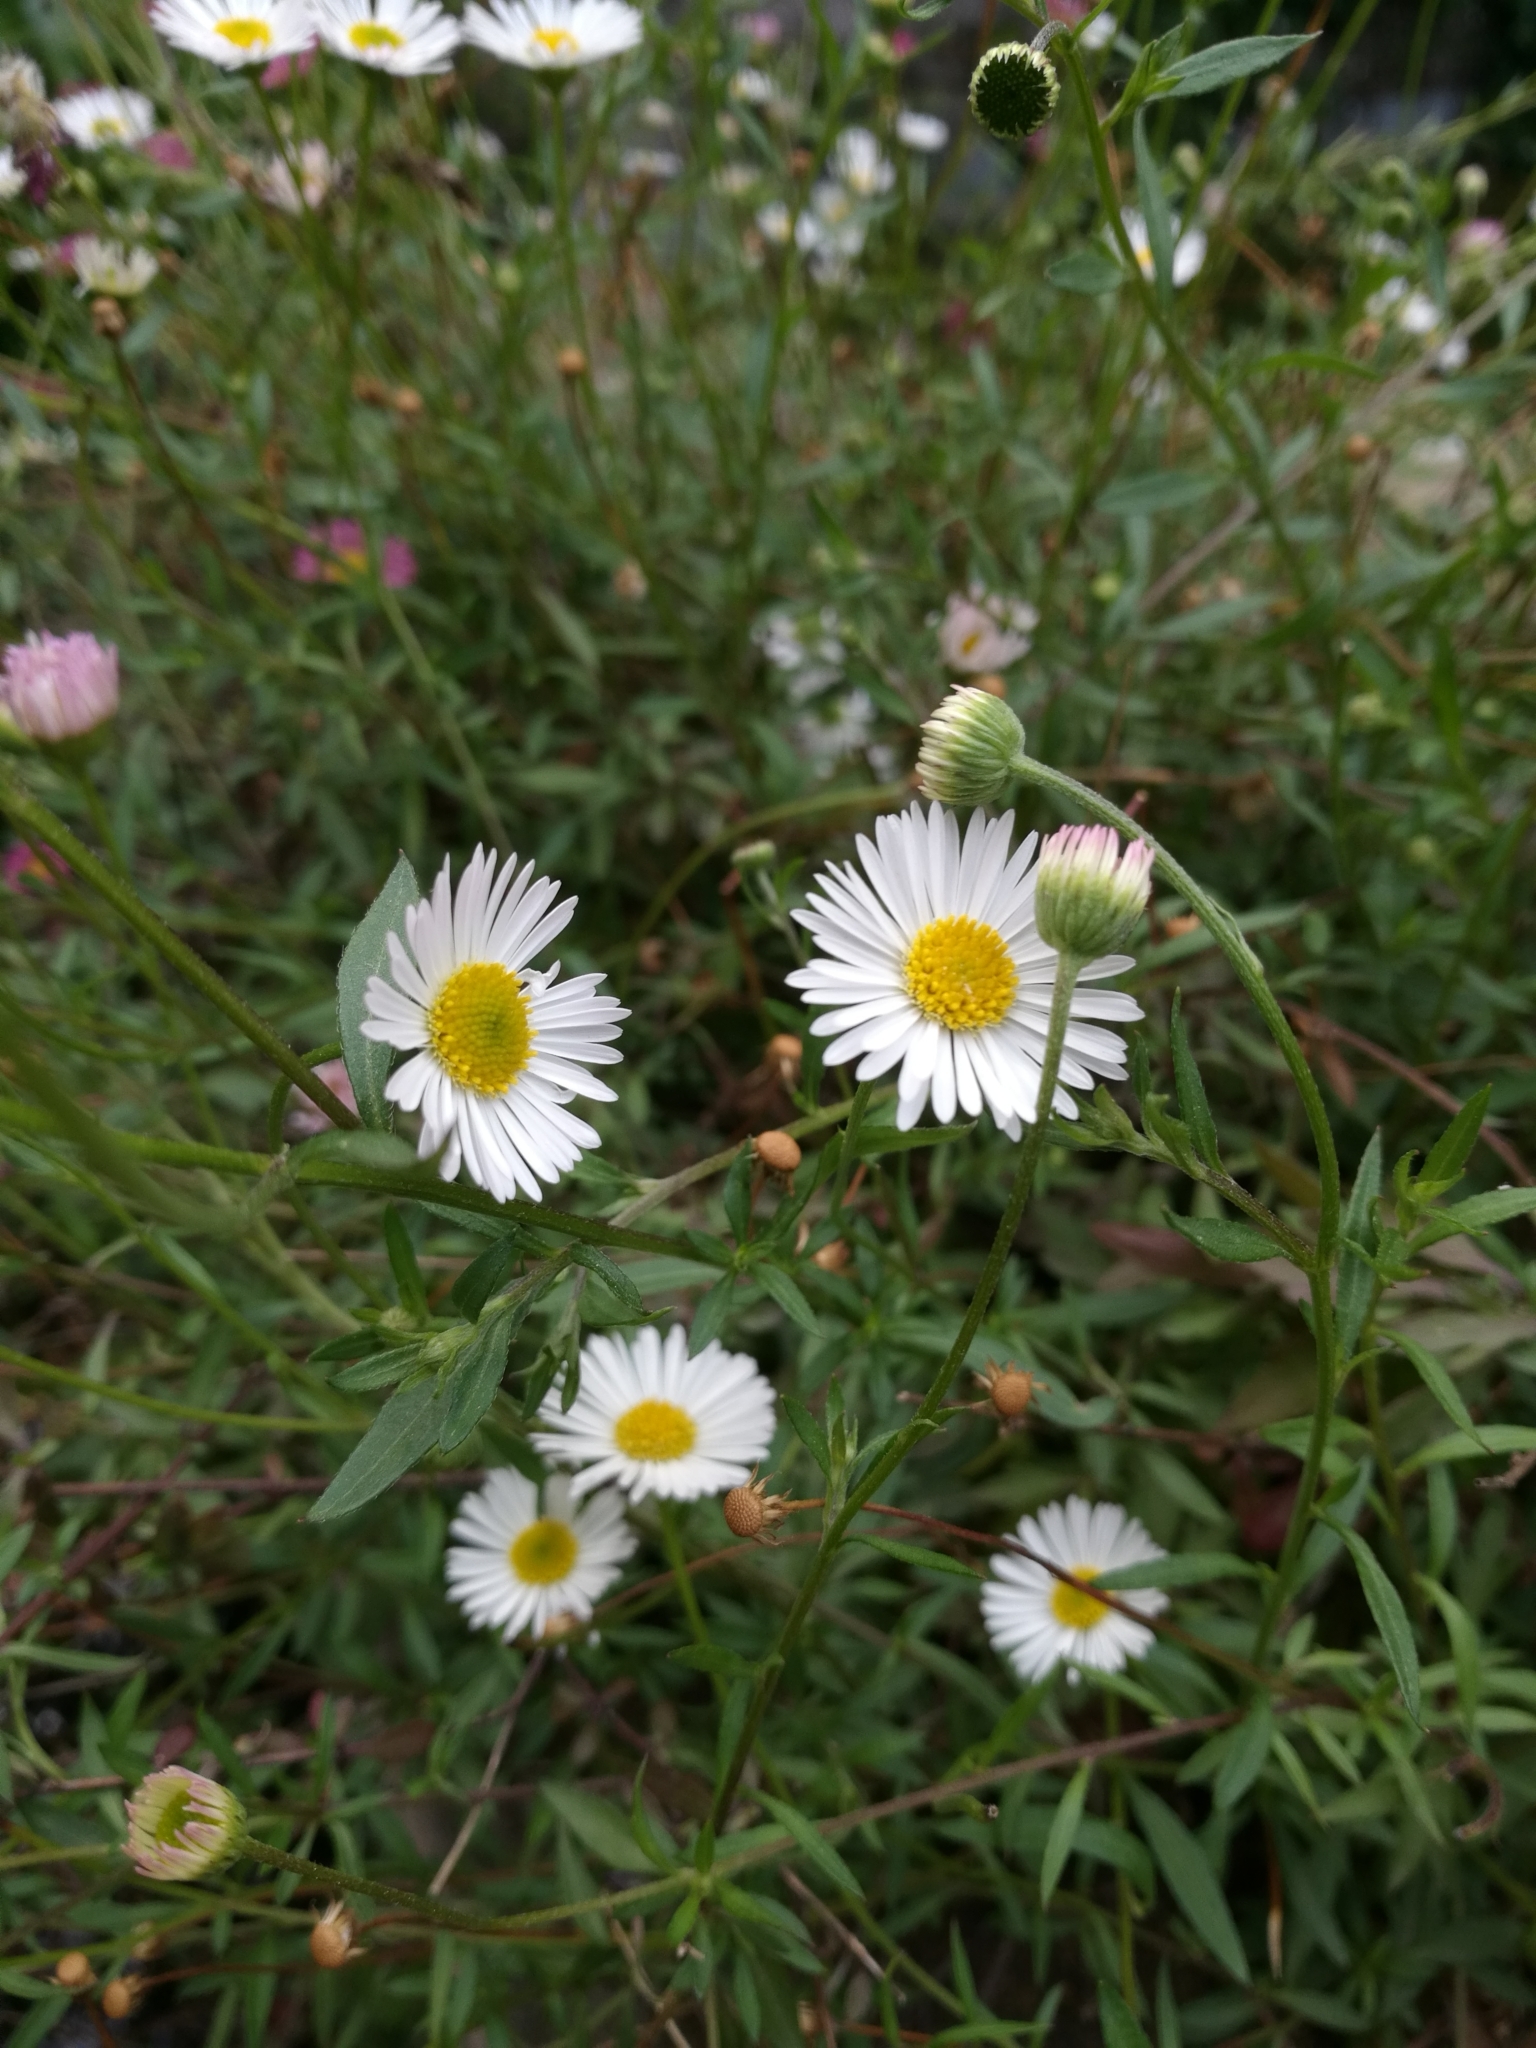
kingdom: Plantae
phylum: Tracheophyta
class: Magnoliopsida
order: Asterales
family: Asteraceae
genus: Erigeron
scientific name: Erigeron karvinskianus
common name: Mexican fleabane
